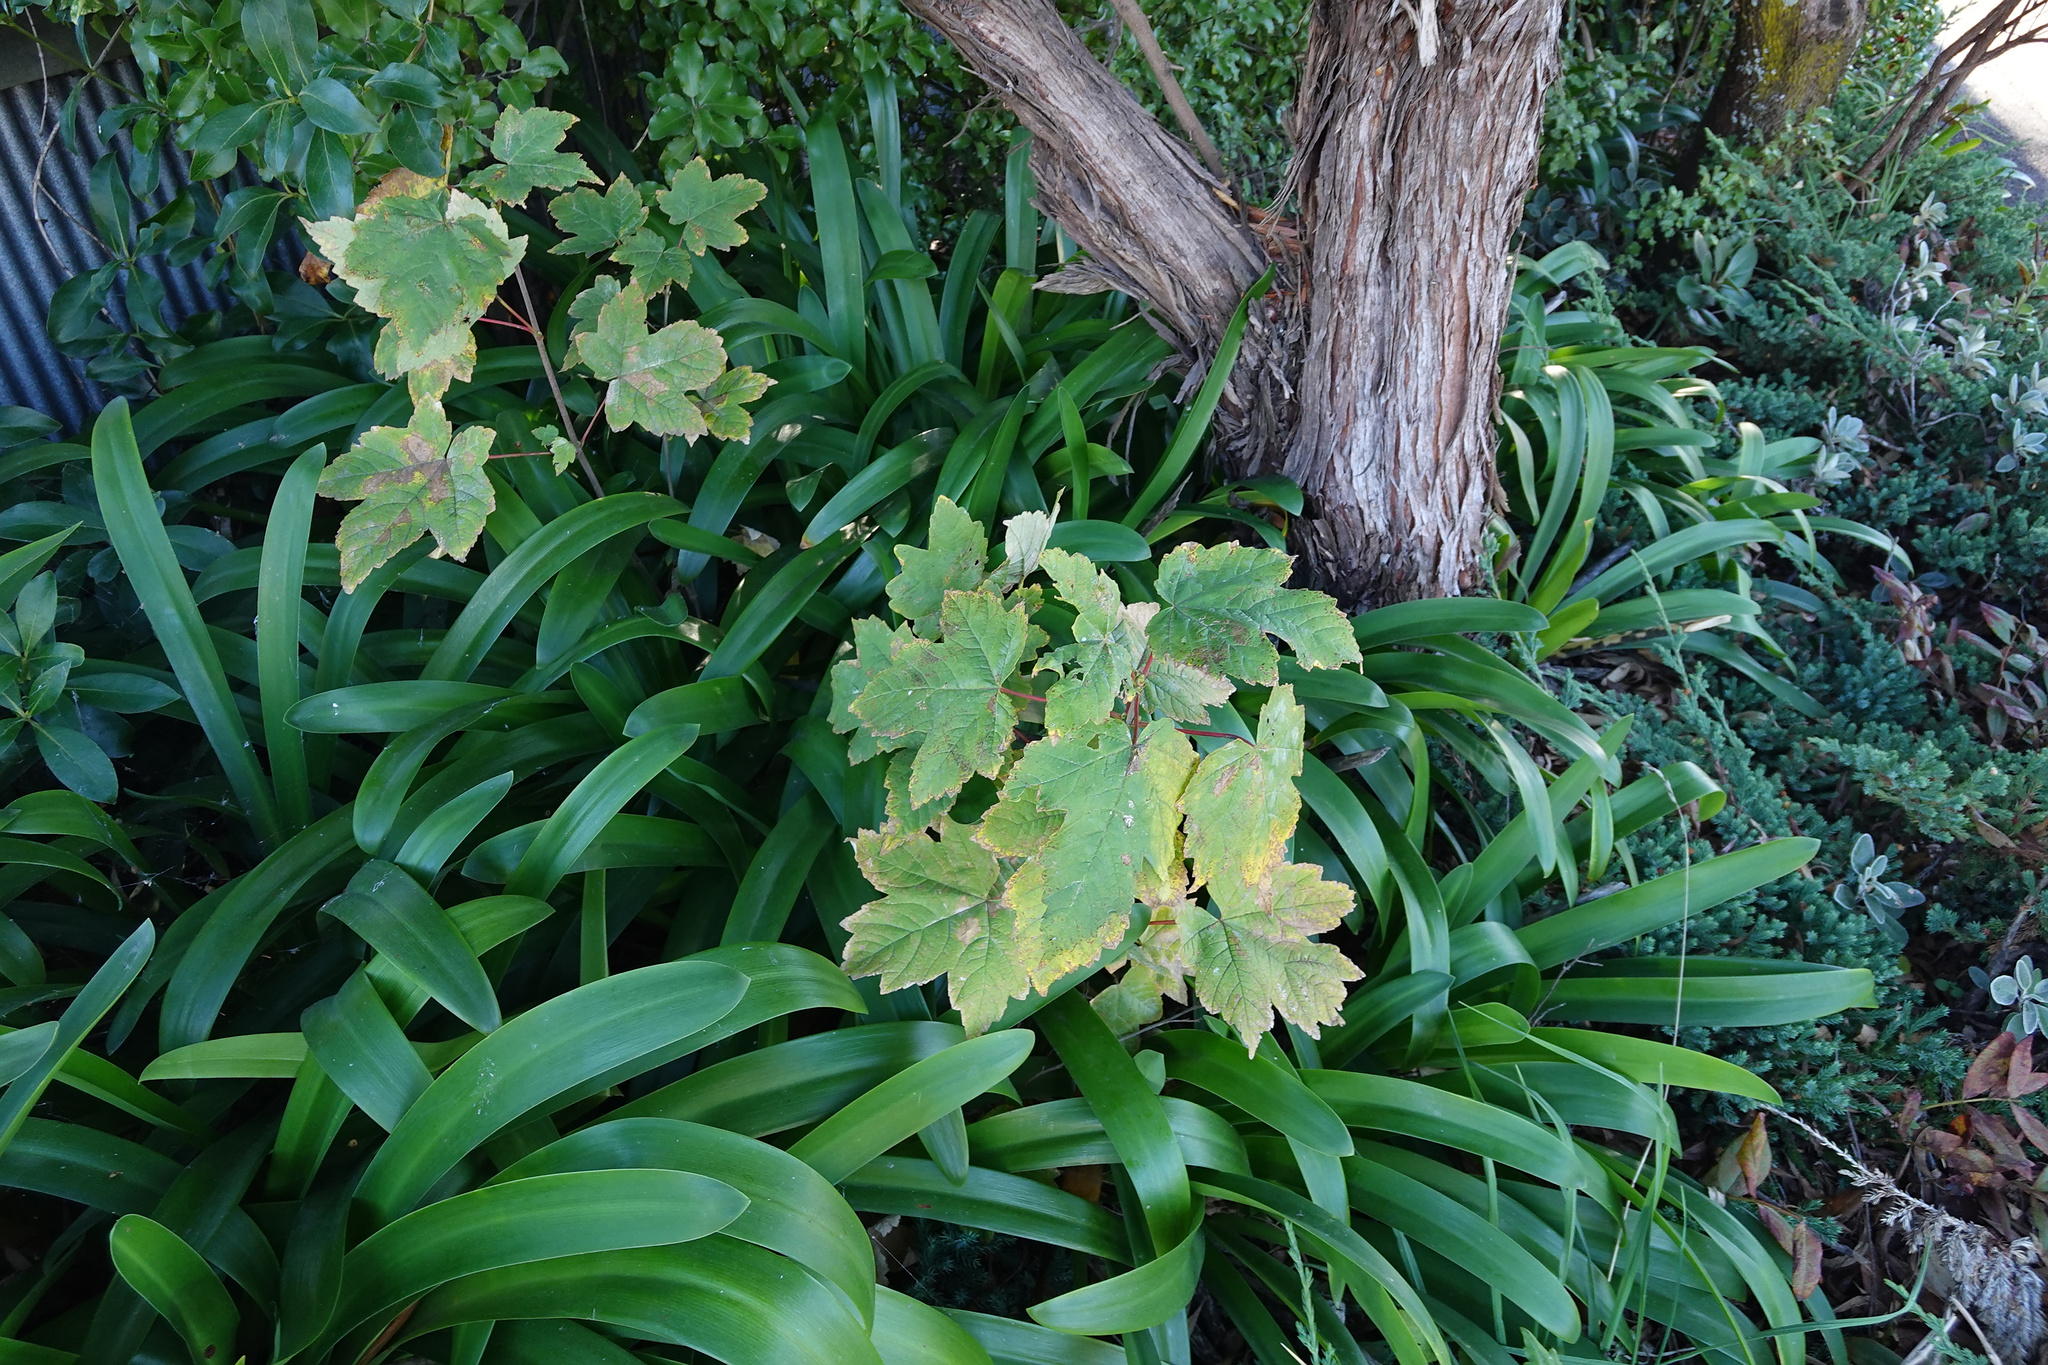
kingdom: Plantae
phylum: Tracheophyta
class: Magnoliopsida
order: Sapindales
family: Sapindaceae
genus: Acer
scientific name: Acer pseudoplatanus
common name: Sycamore
